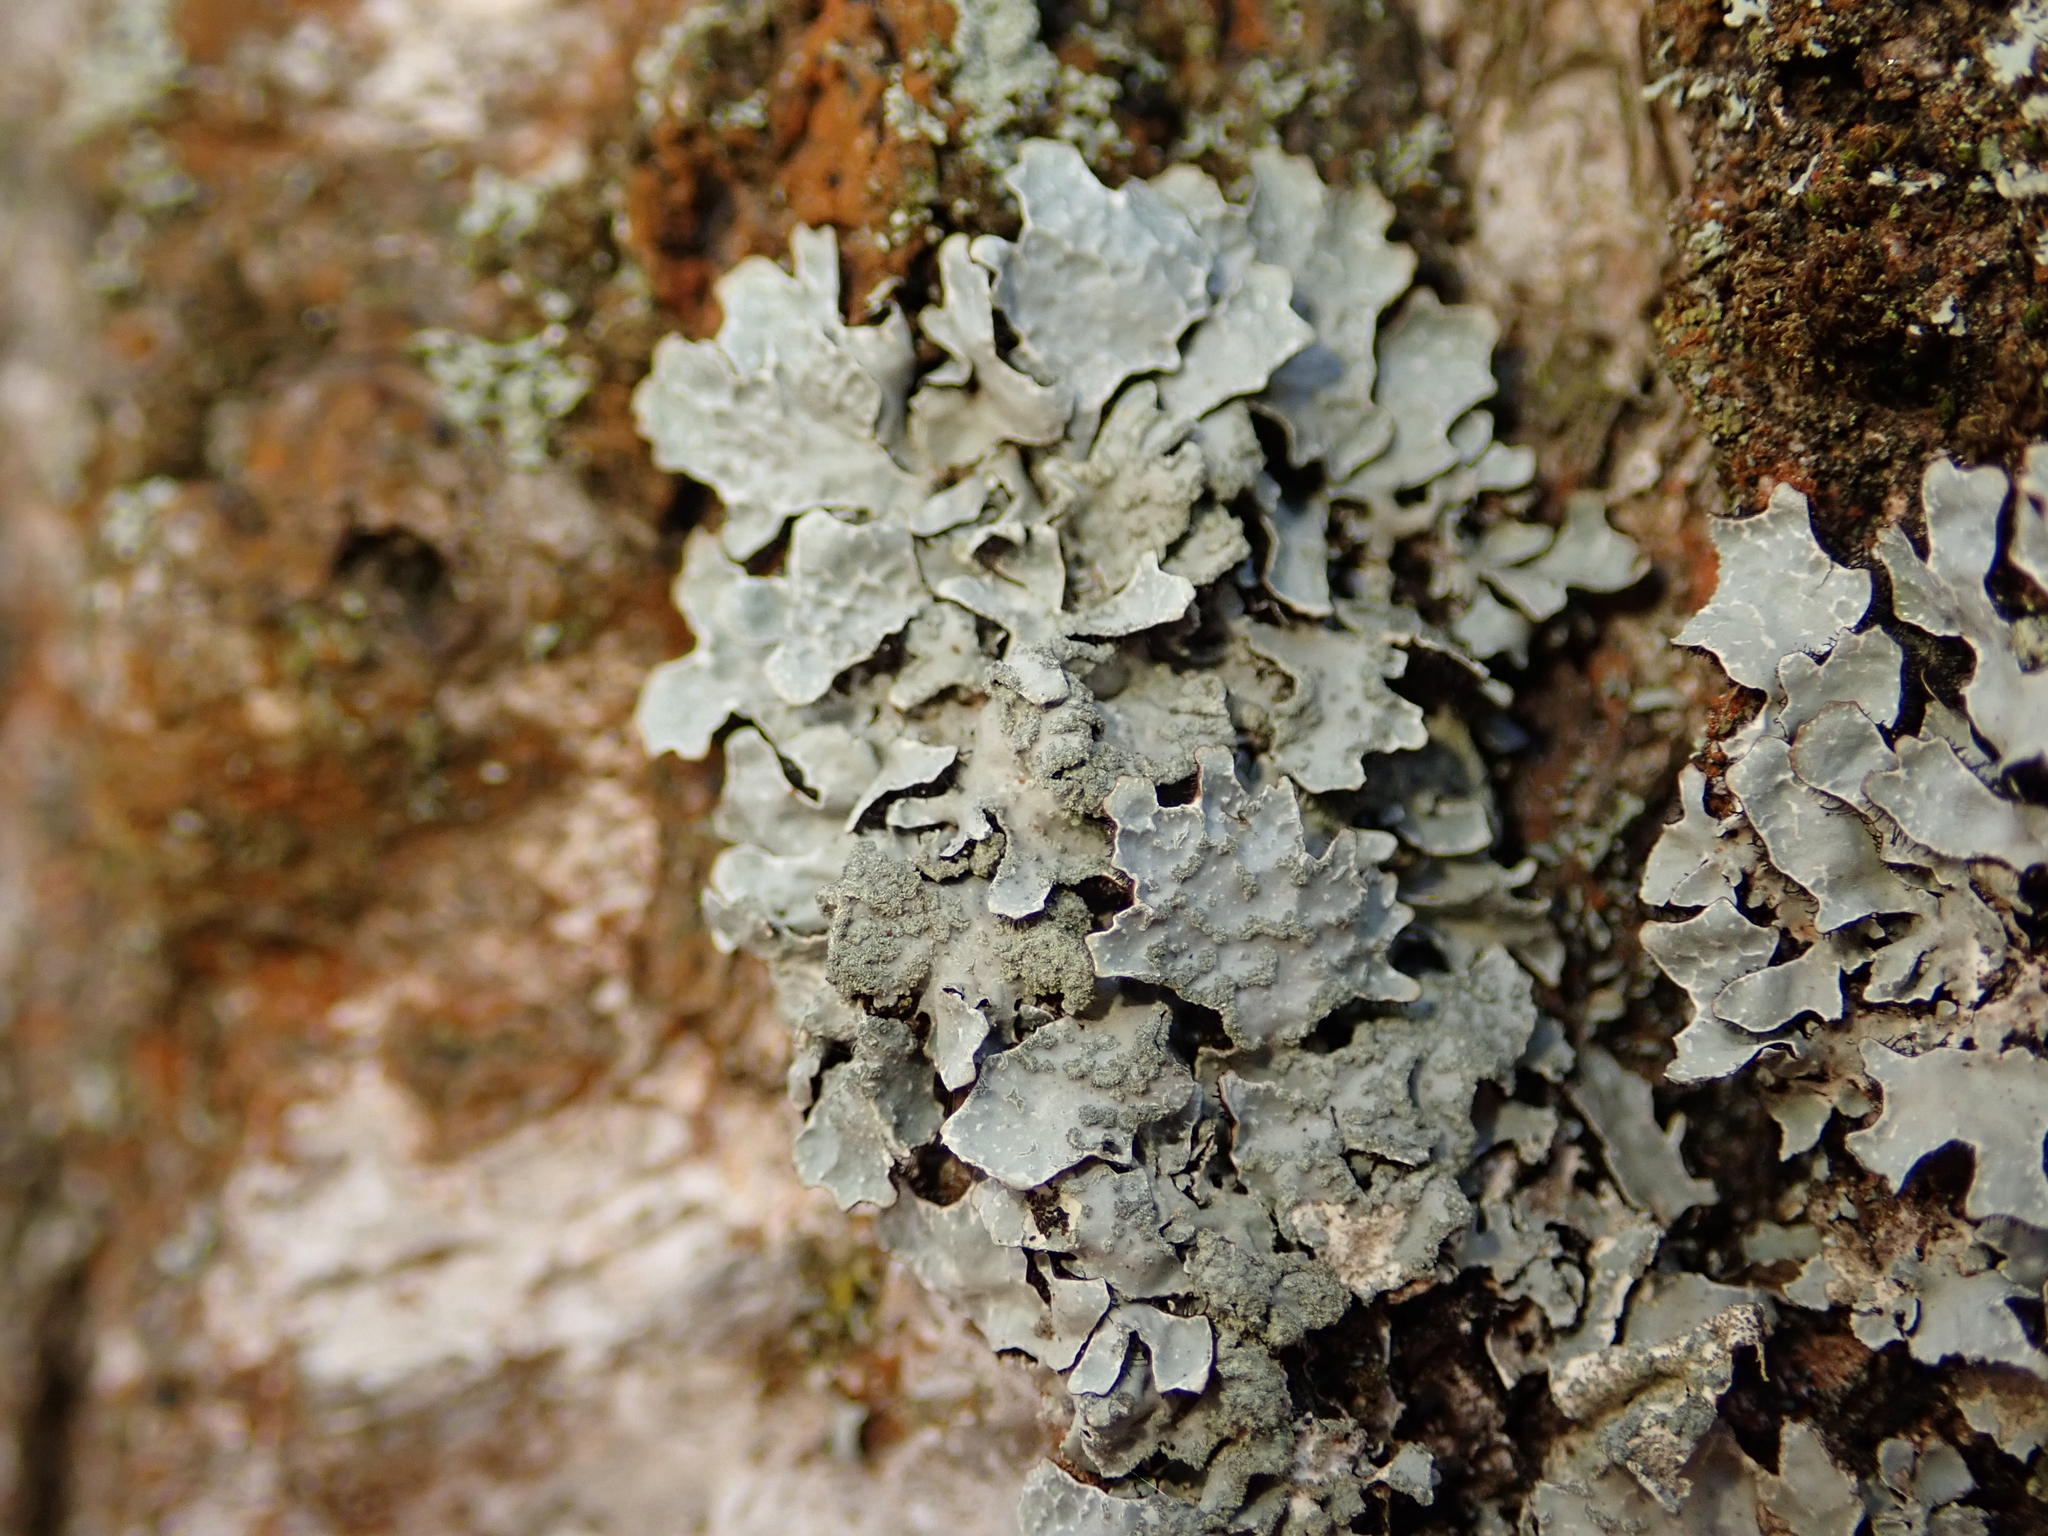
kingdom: Fungi
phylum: Ascomycota
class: Lecanoromycetes
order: Lecanorales
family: Parmeliaceae
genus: Parmelia
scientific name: Parmelia sulcata
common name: Netted shield lichen
